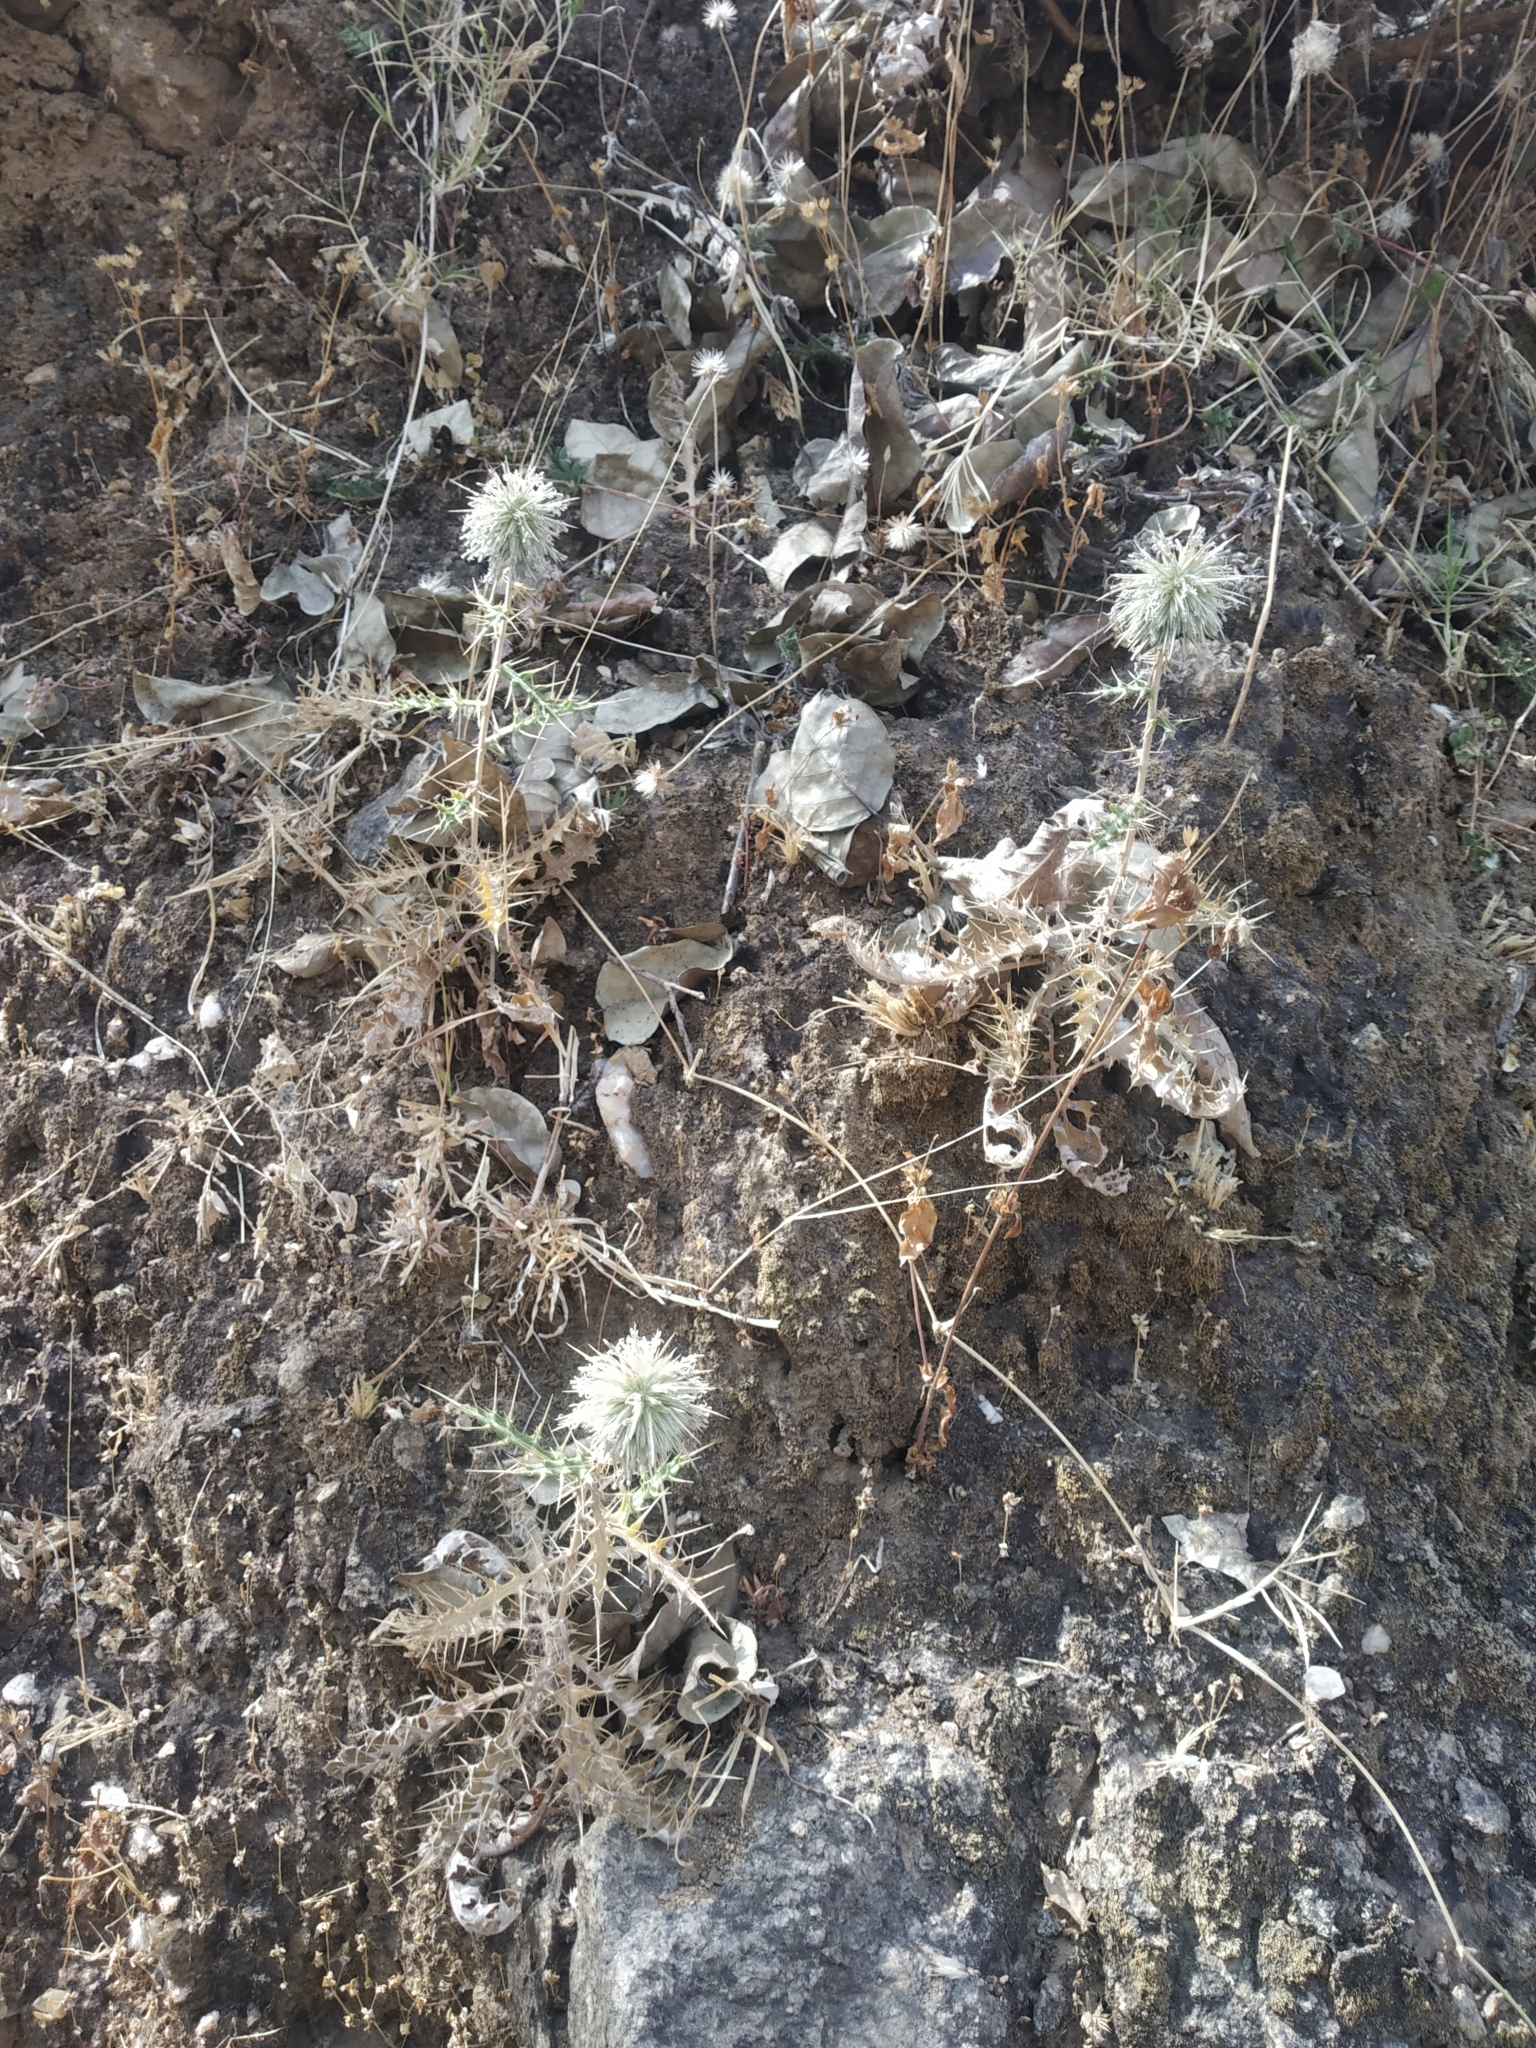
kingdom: Plantae
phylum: Tracheophyta
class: Magnoliopsida
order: Asterales
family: Asteraceae
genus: Echinops
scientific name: Echinops echinatus
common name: Indian globe thistle
